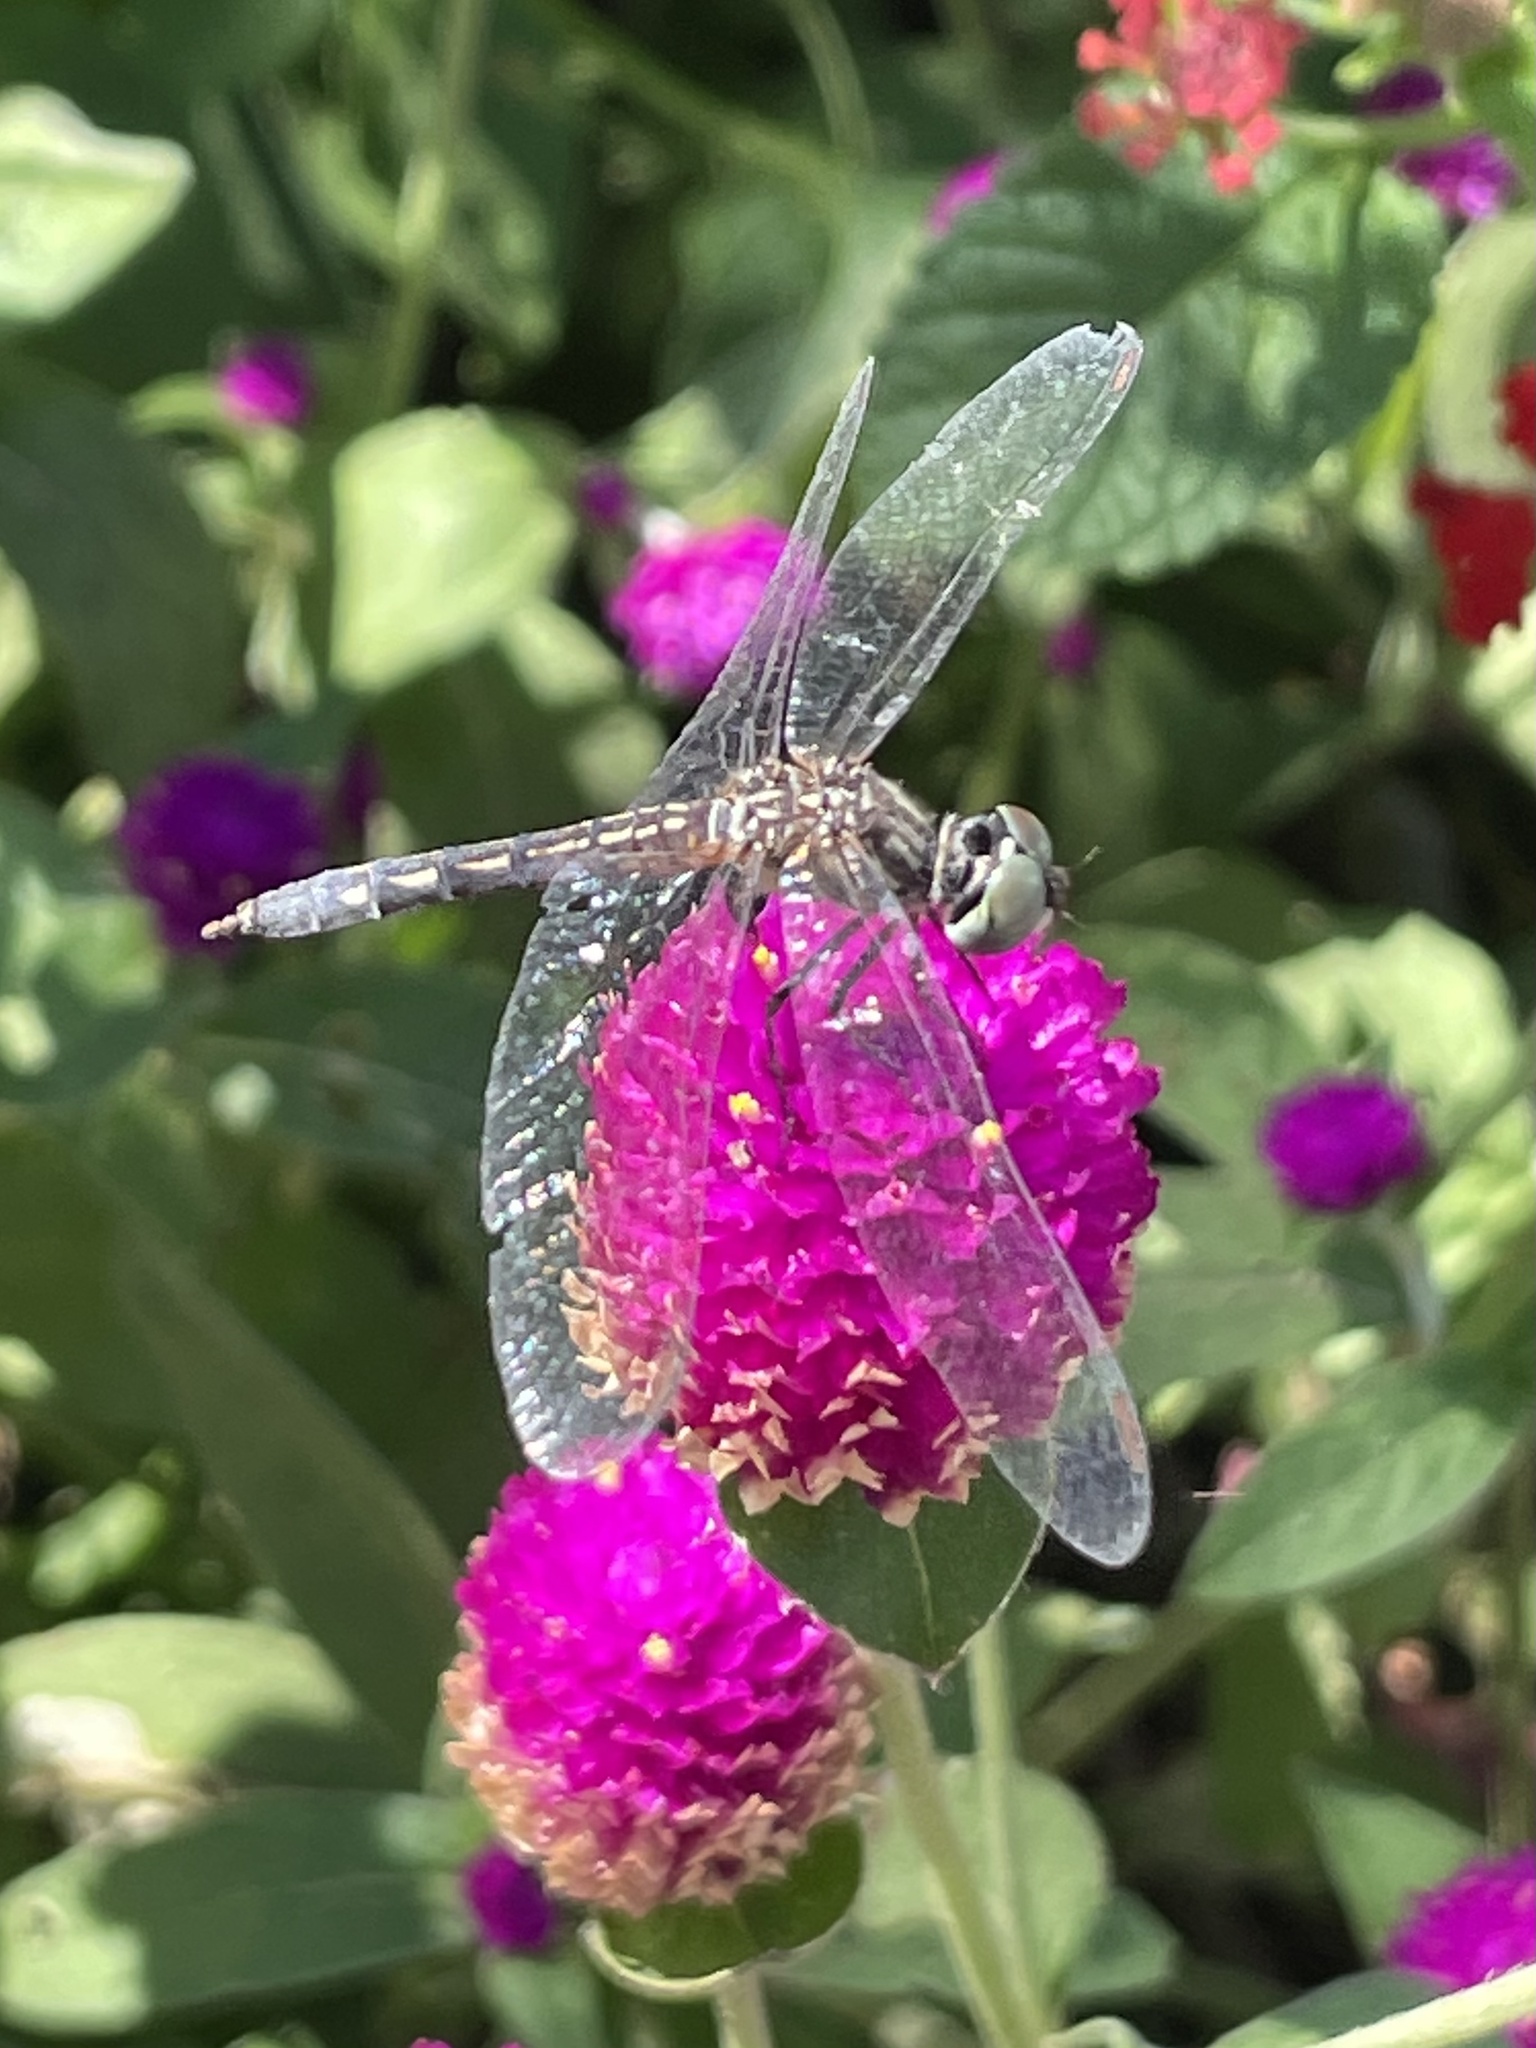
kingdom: Animalia
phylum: Arthropoda
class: Insecta
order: Odonata
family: Libellulidae
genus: Pachydiplax
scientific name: Pachydiplax longipennis
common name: Blue dasher
